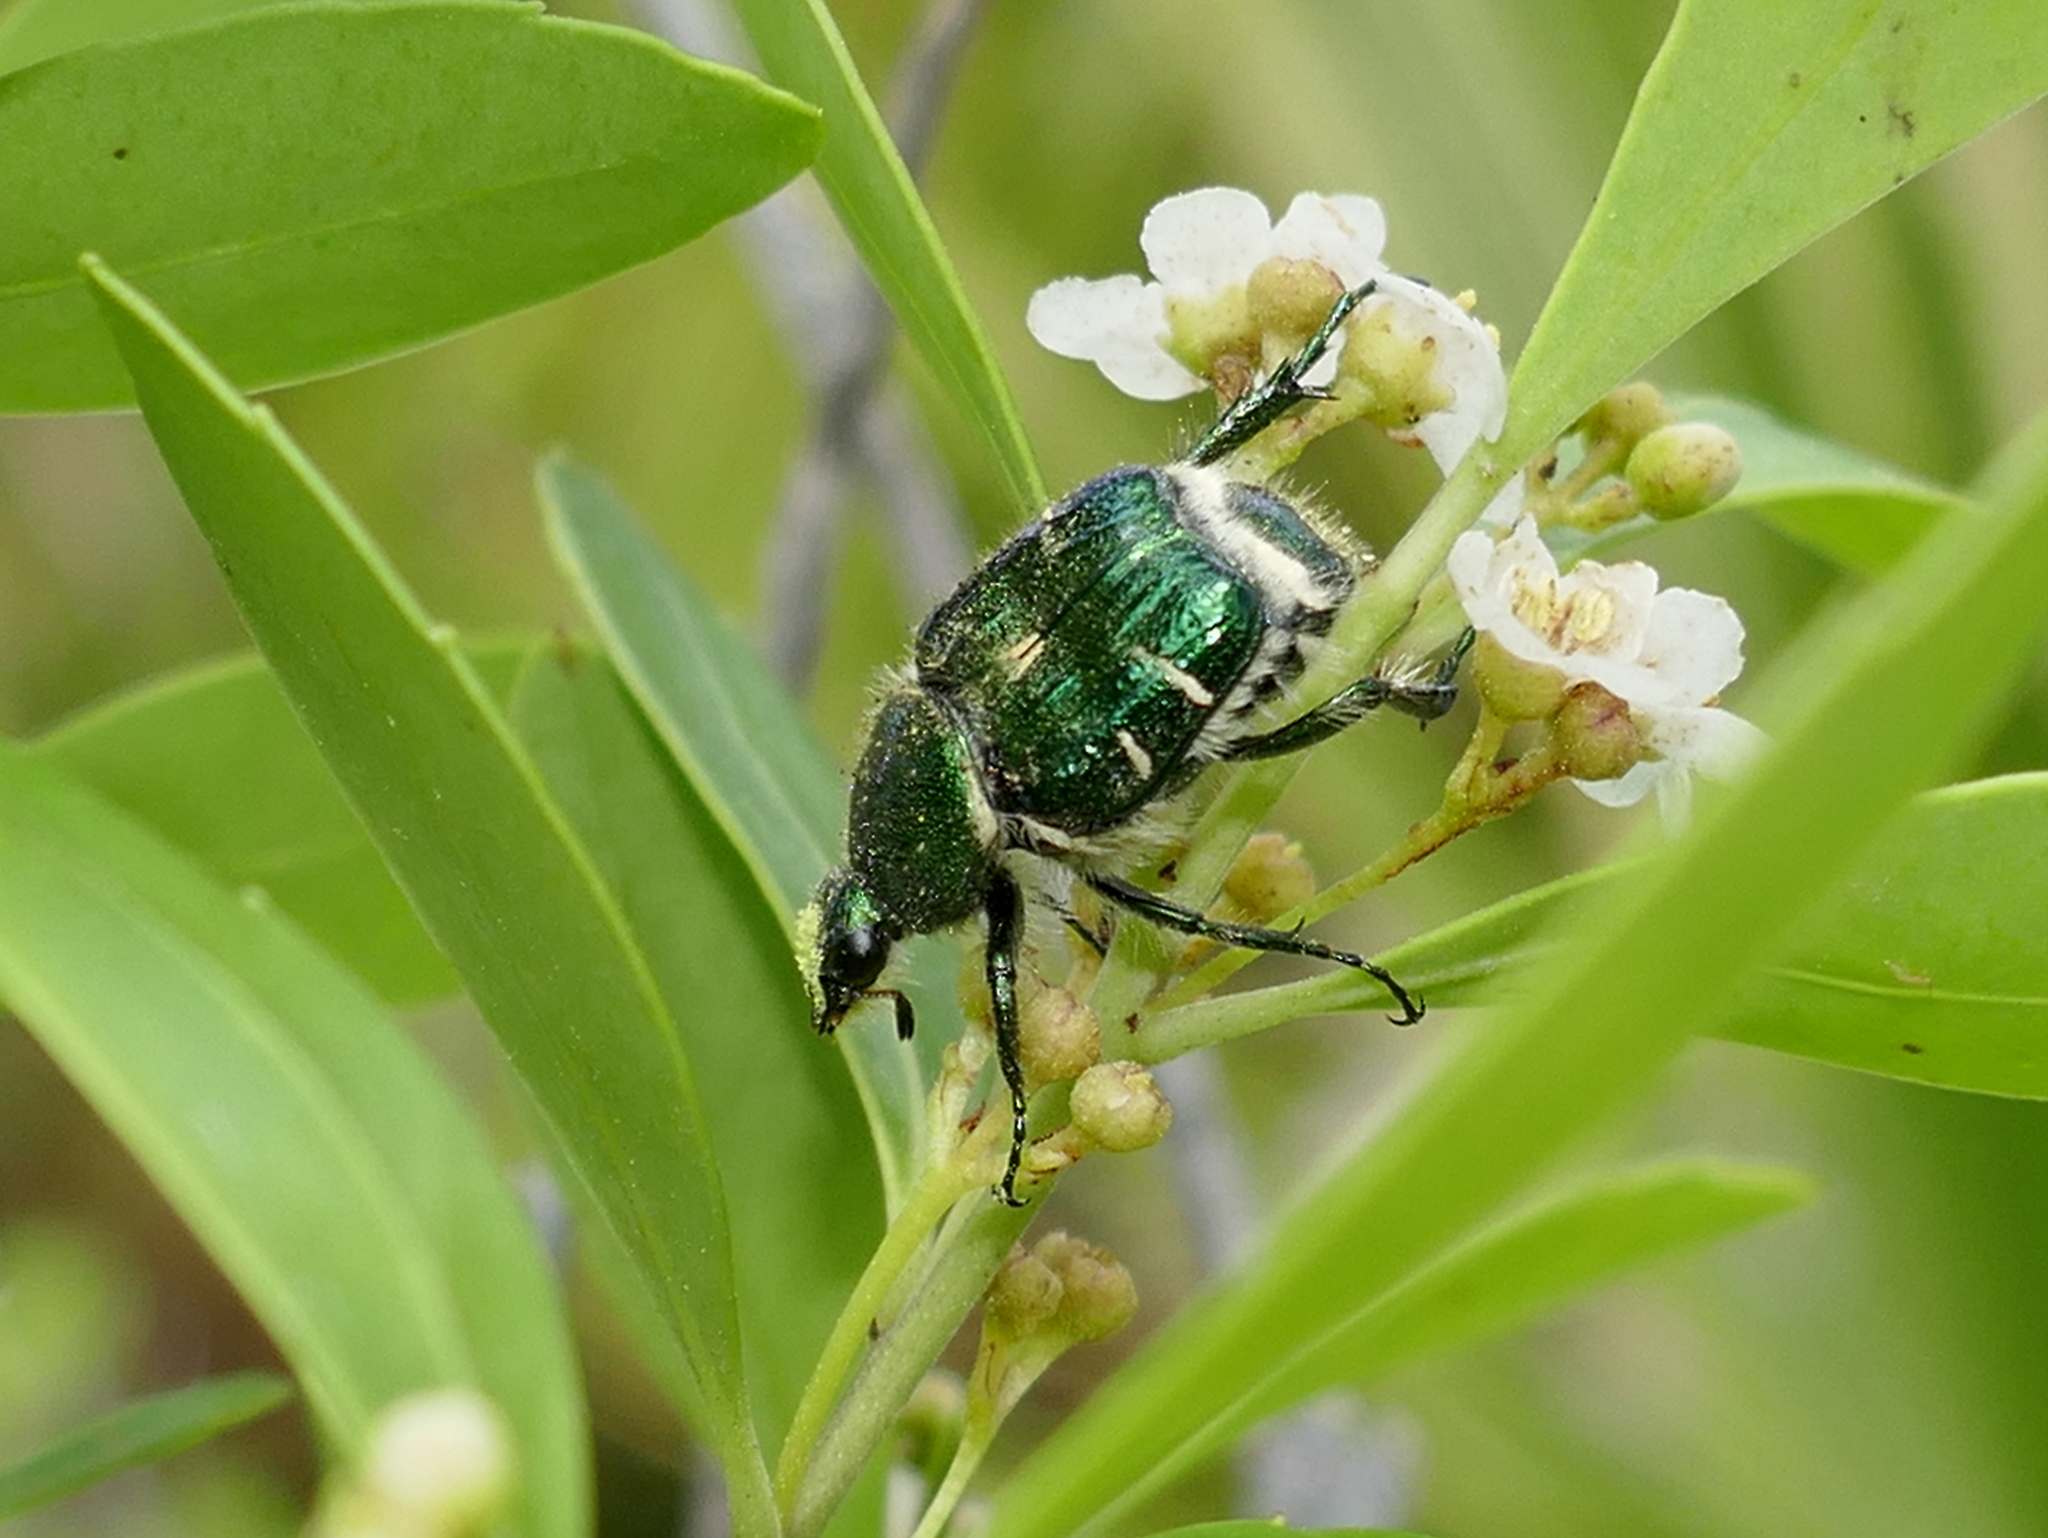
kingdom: Animalia
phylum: Arthropoda
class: Insecta
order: Coleoptera
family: Scarabaeidae
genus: Trichiotinus
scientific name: Trichiotinus lunulatus
